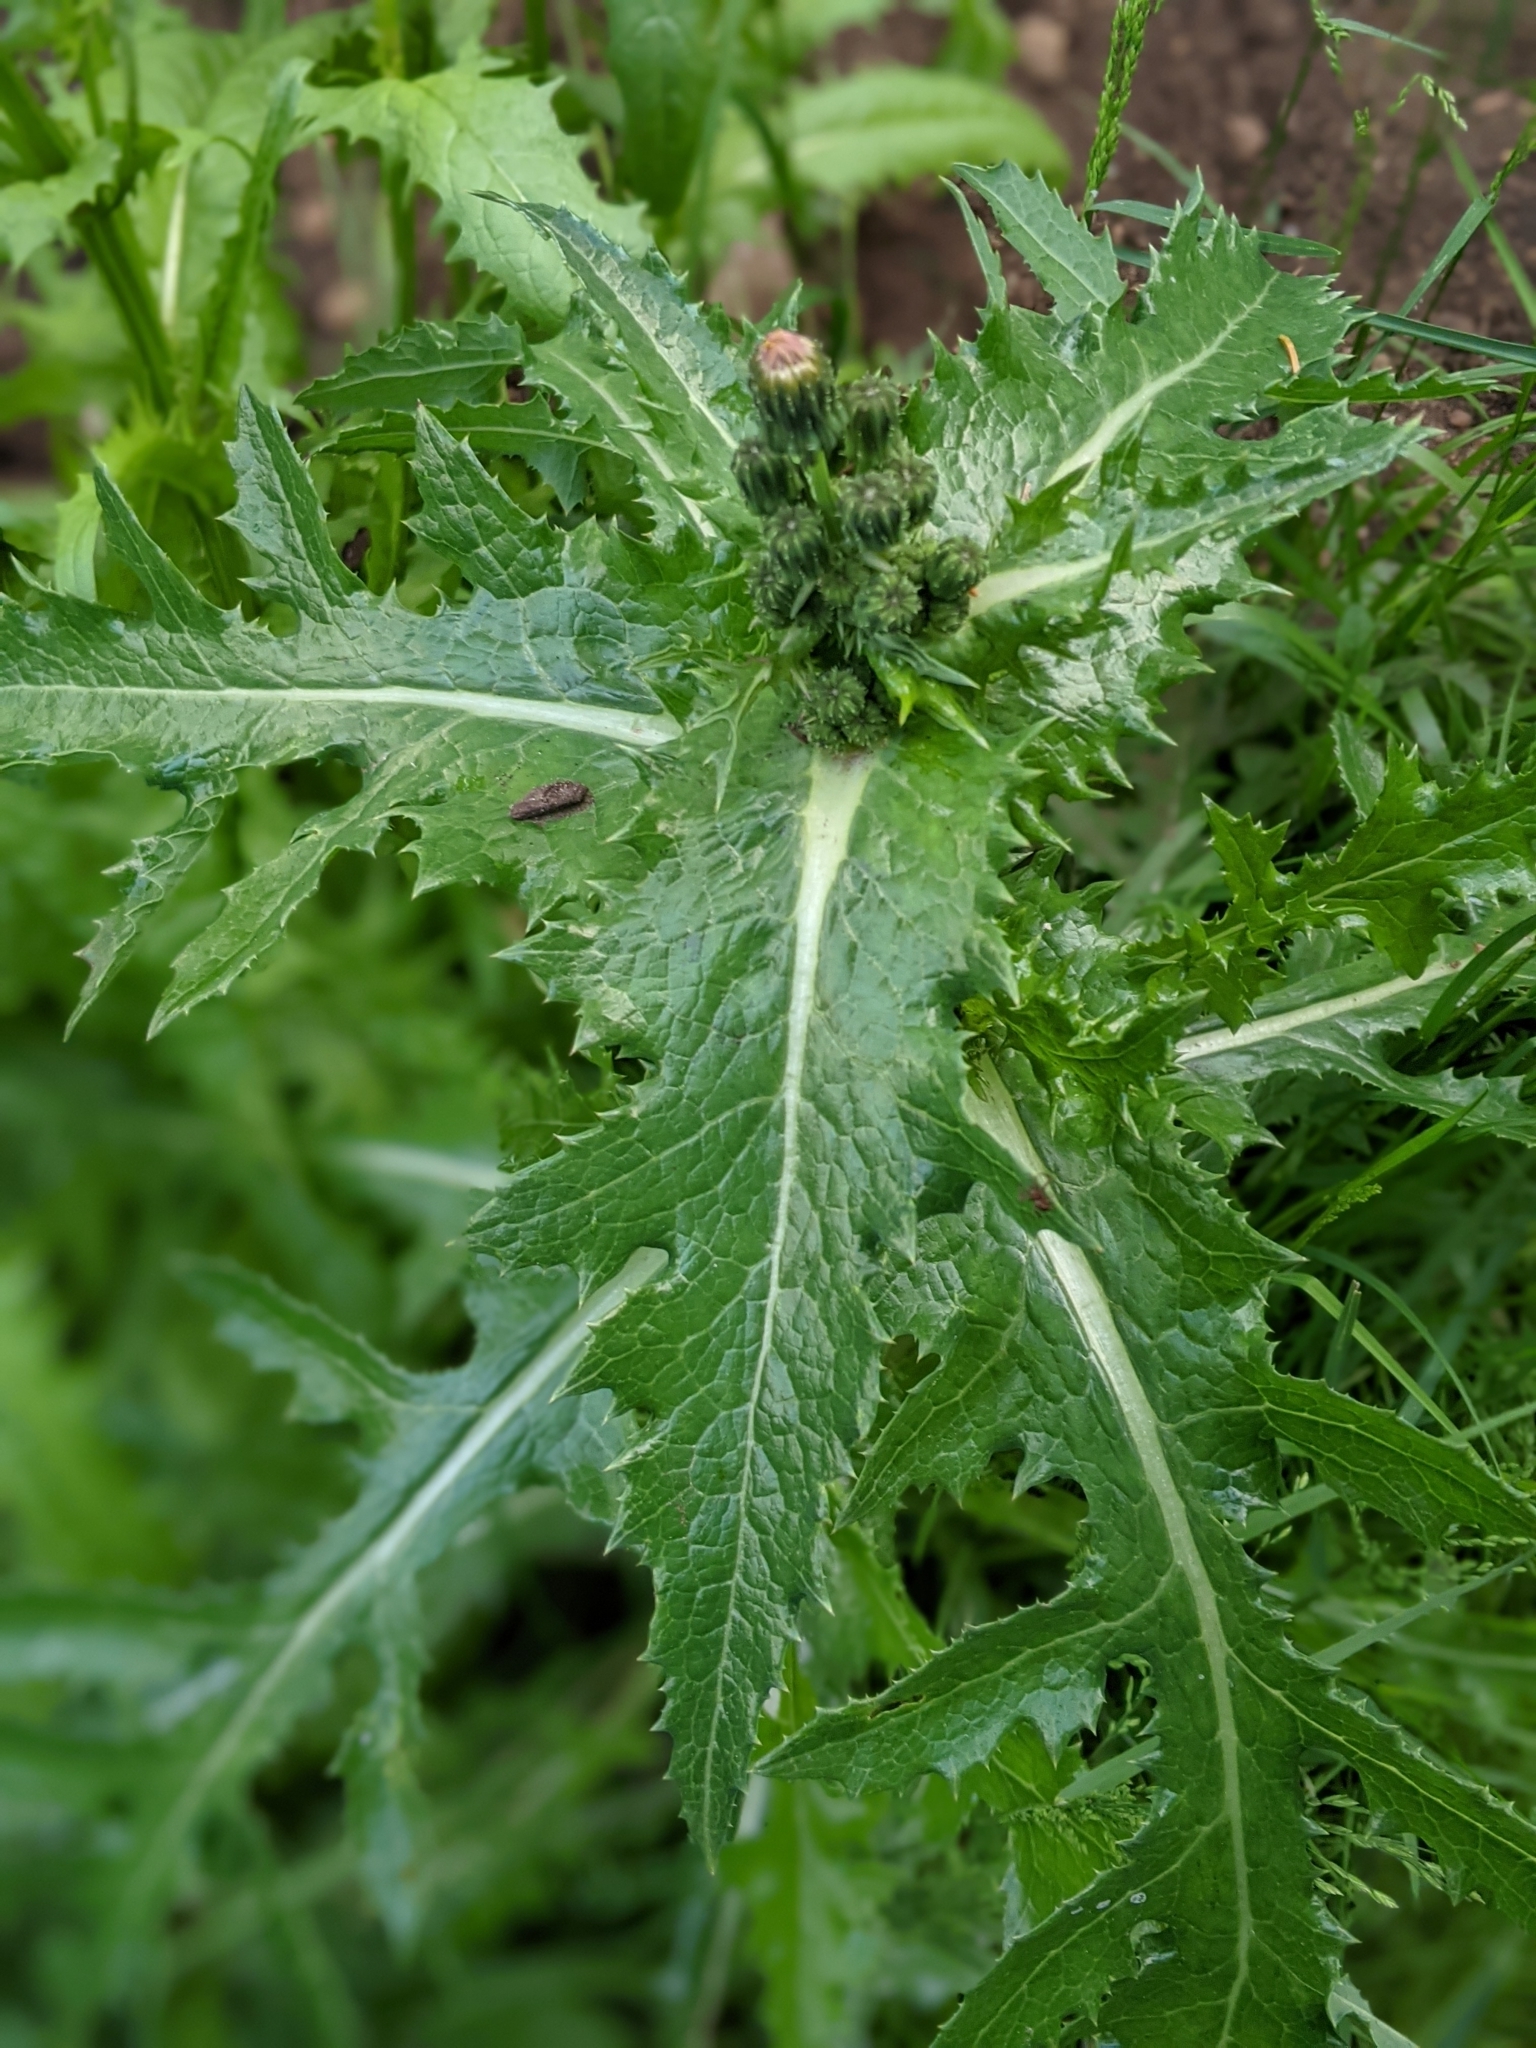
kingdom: Plantae
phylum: Tracheophyta
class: Magnoliopsida
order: Asterales
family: Asteraceae
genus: Sonchus
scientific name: Sonchus asper
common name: Prickly sow-thistle
